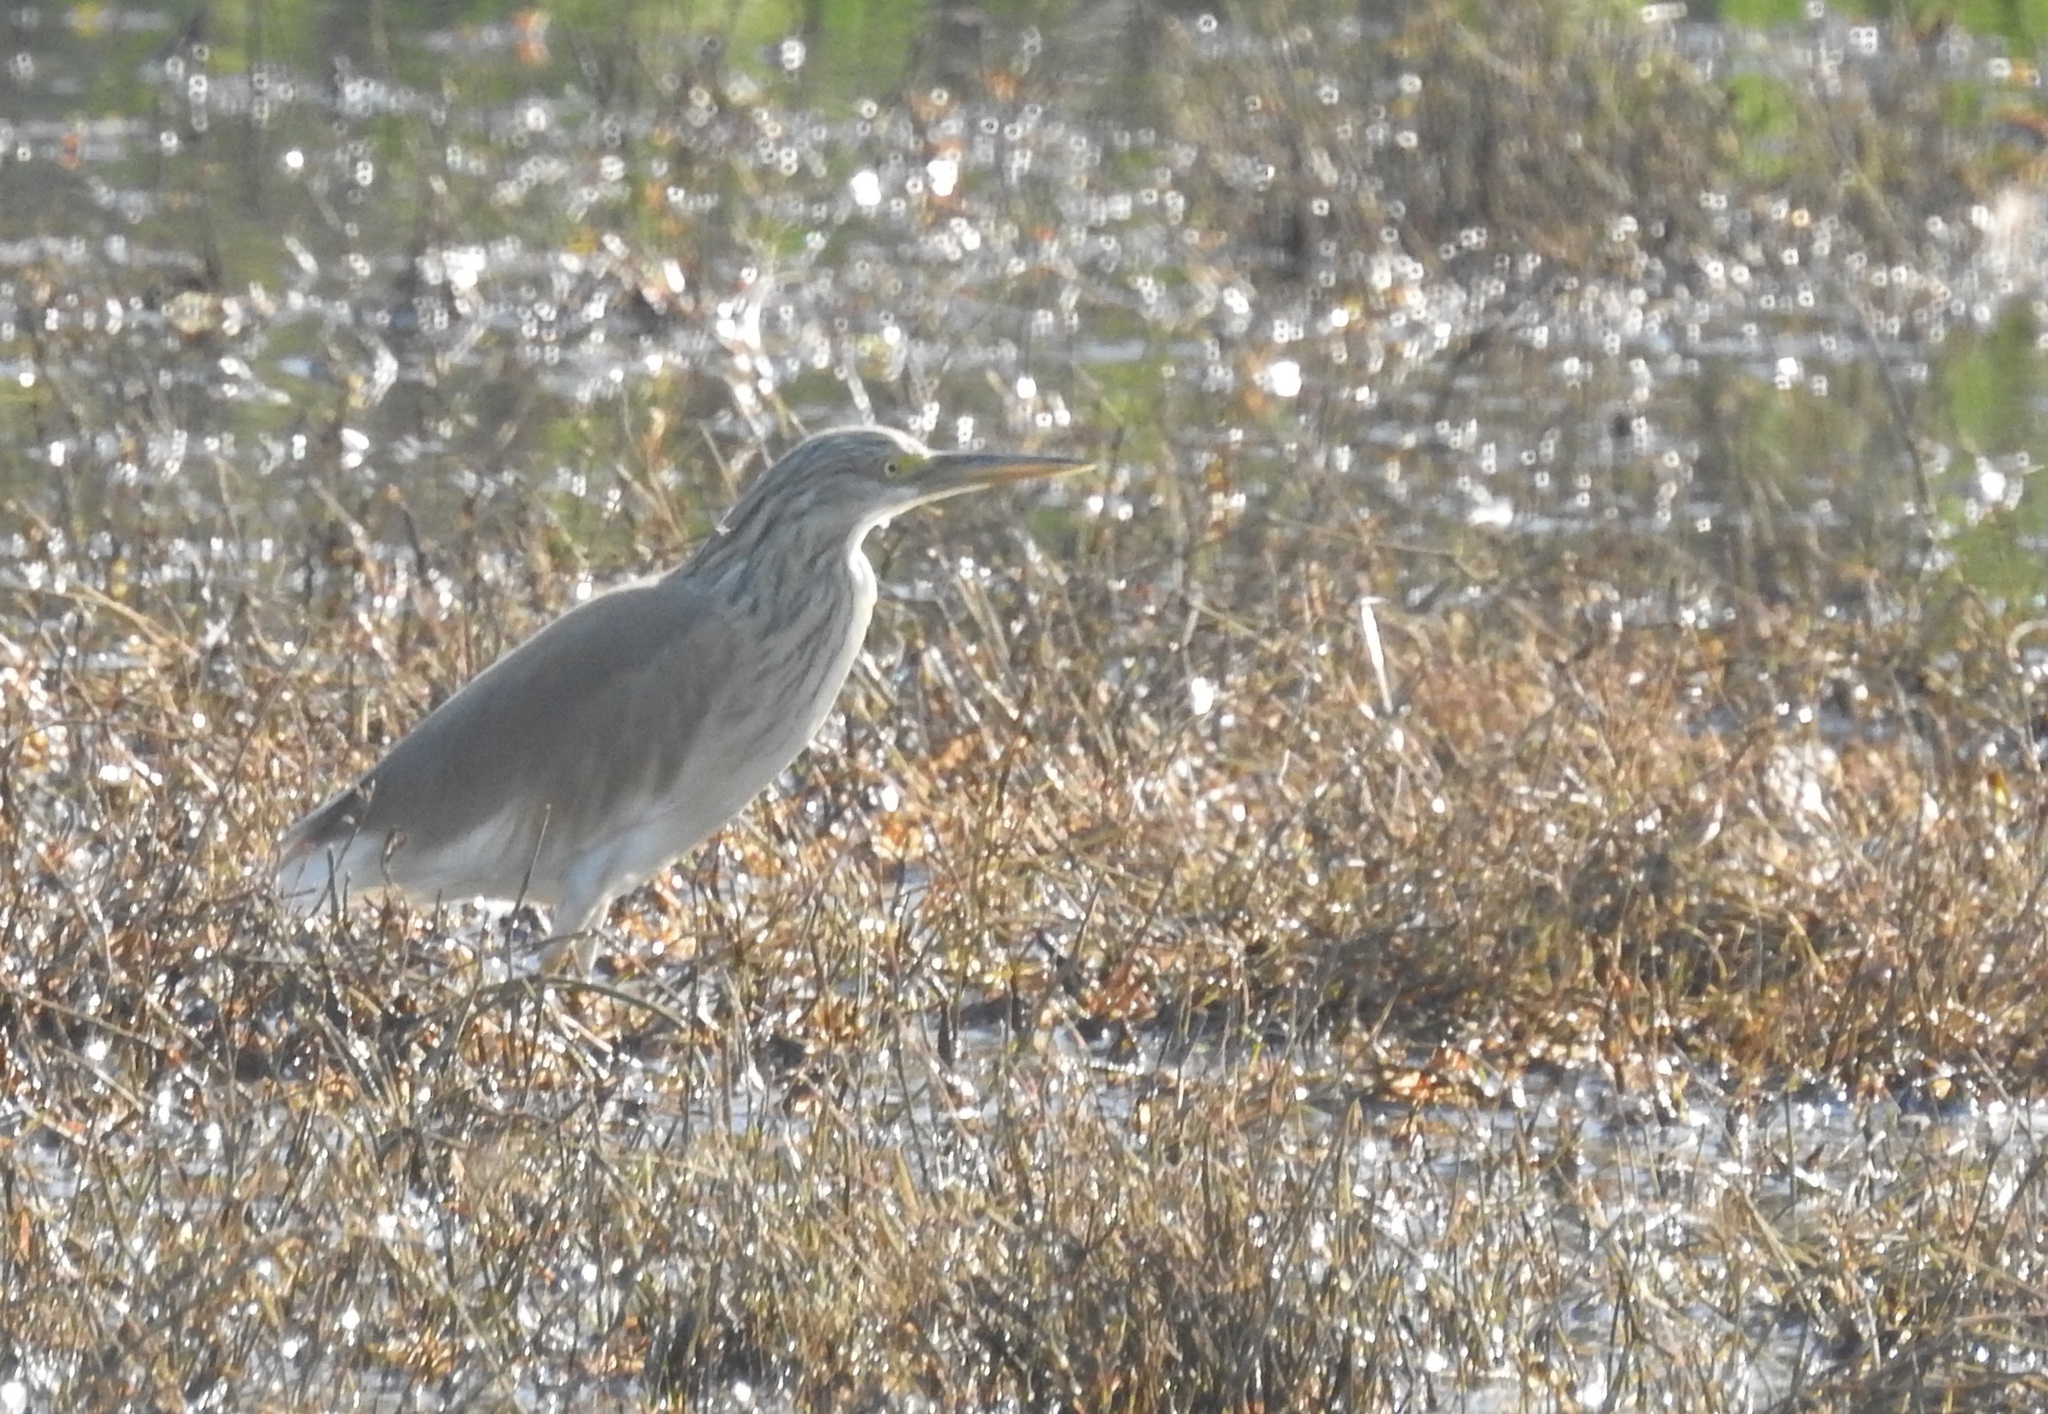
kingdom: Animalia
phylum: Chordata
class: Aves
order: Pelecaniformes
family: Ardeidae
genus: Ardeola
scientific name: Ardeola ralloides
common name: Squacco heron
